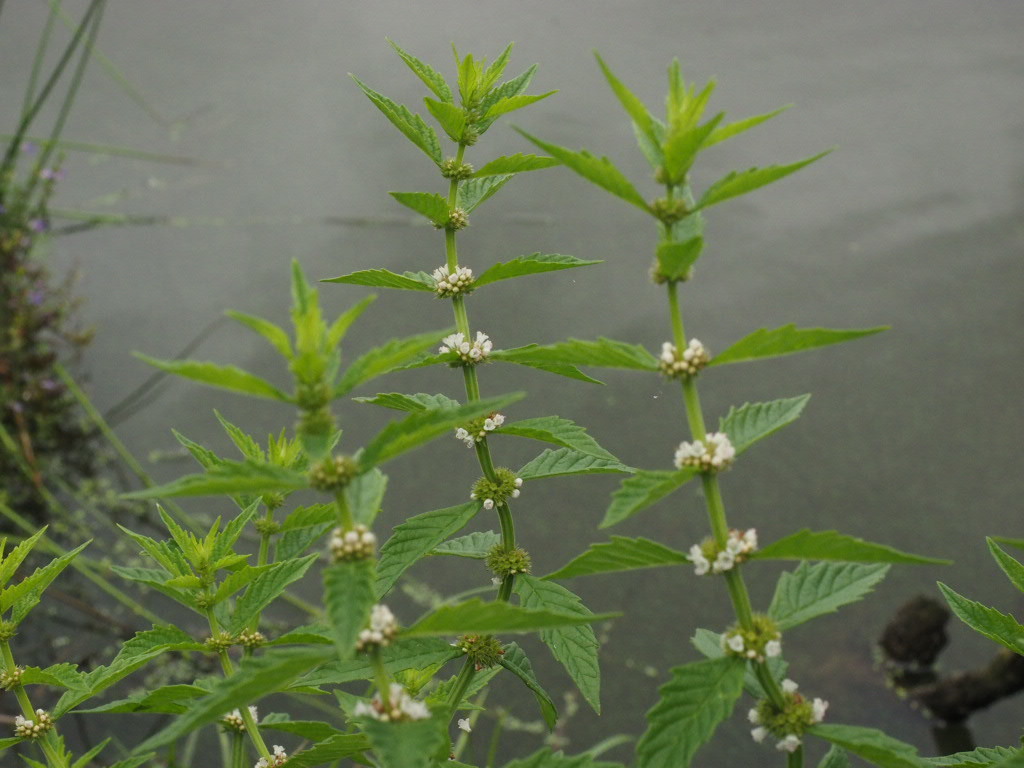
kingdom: Plantae
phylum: Tracheophyta
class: Magnoliopsida
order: Lamiales
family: Lamiaceae
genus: Lycopus
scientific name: Lycopus europaeus
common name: European bugleweed
